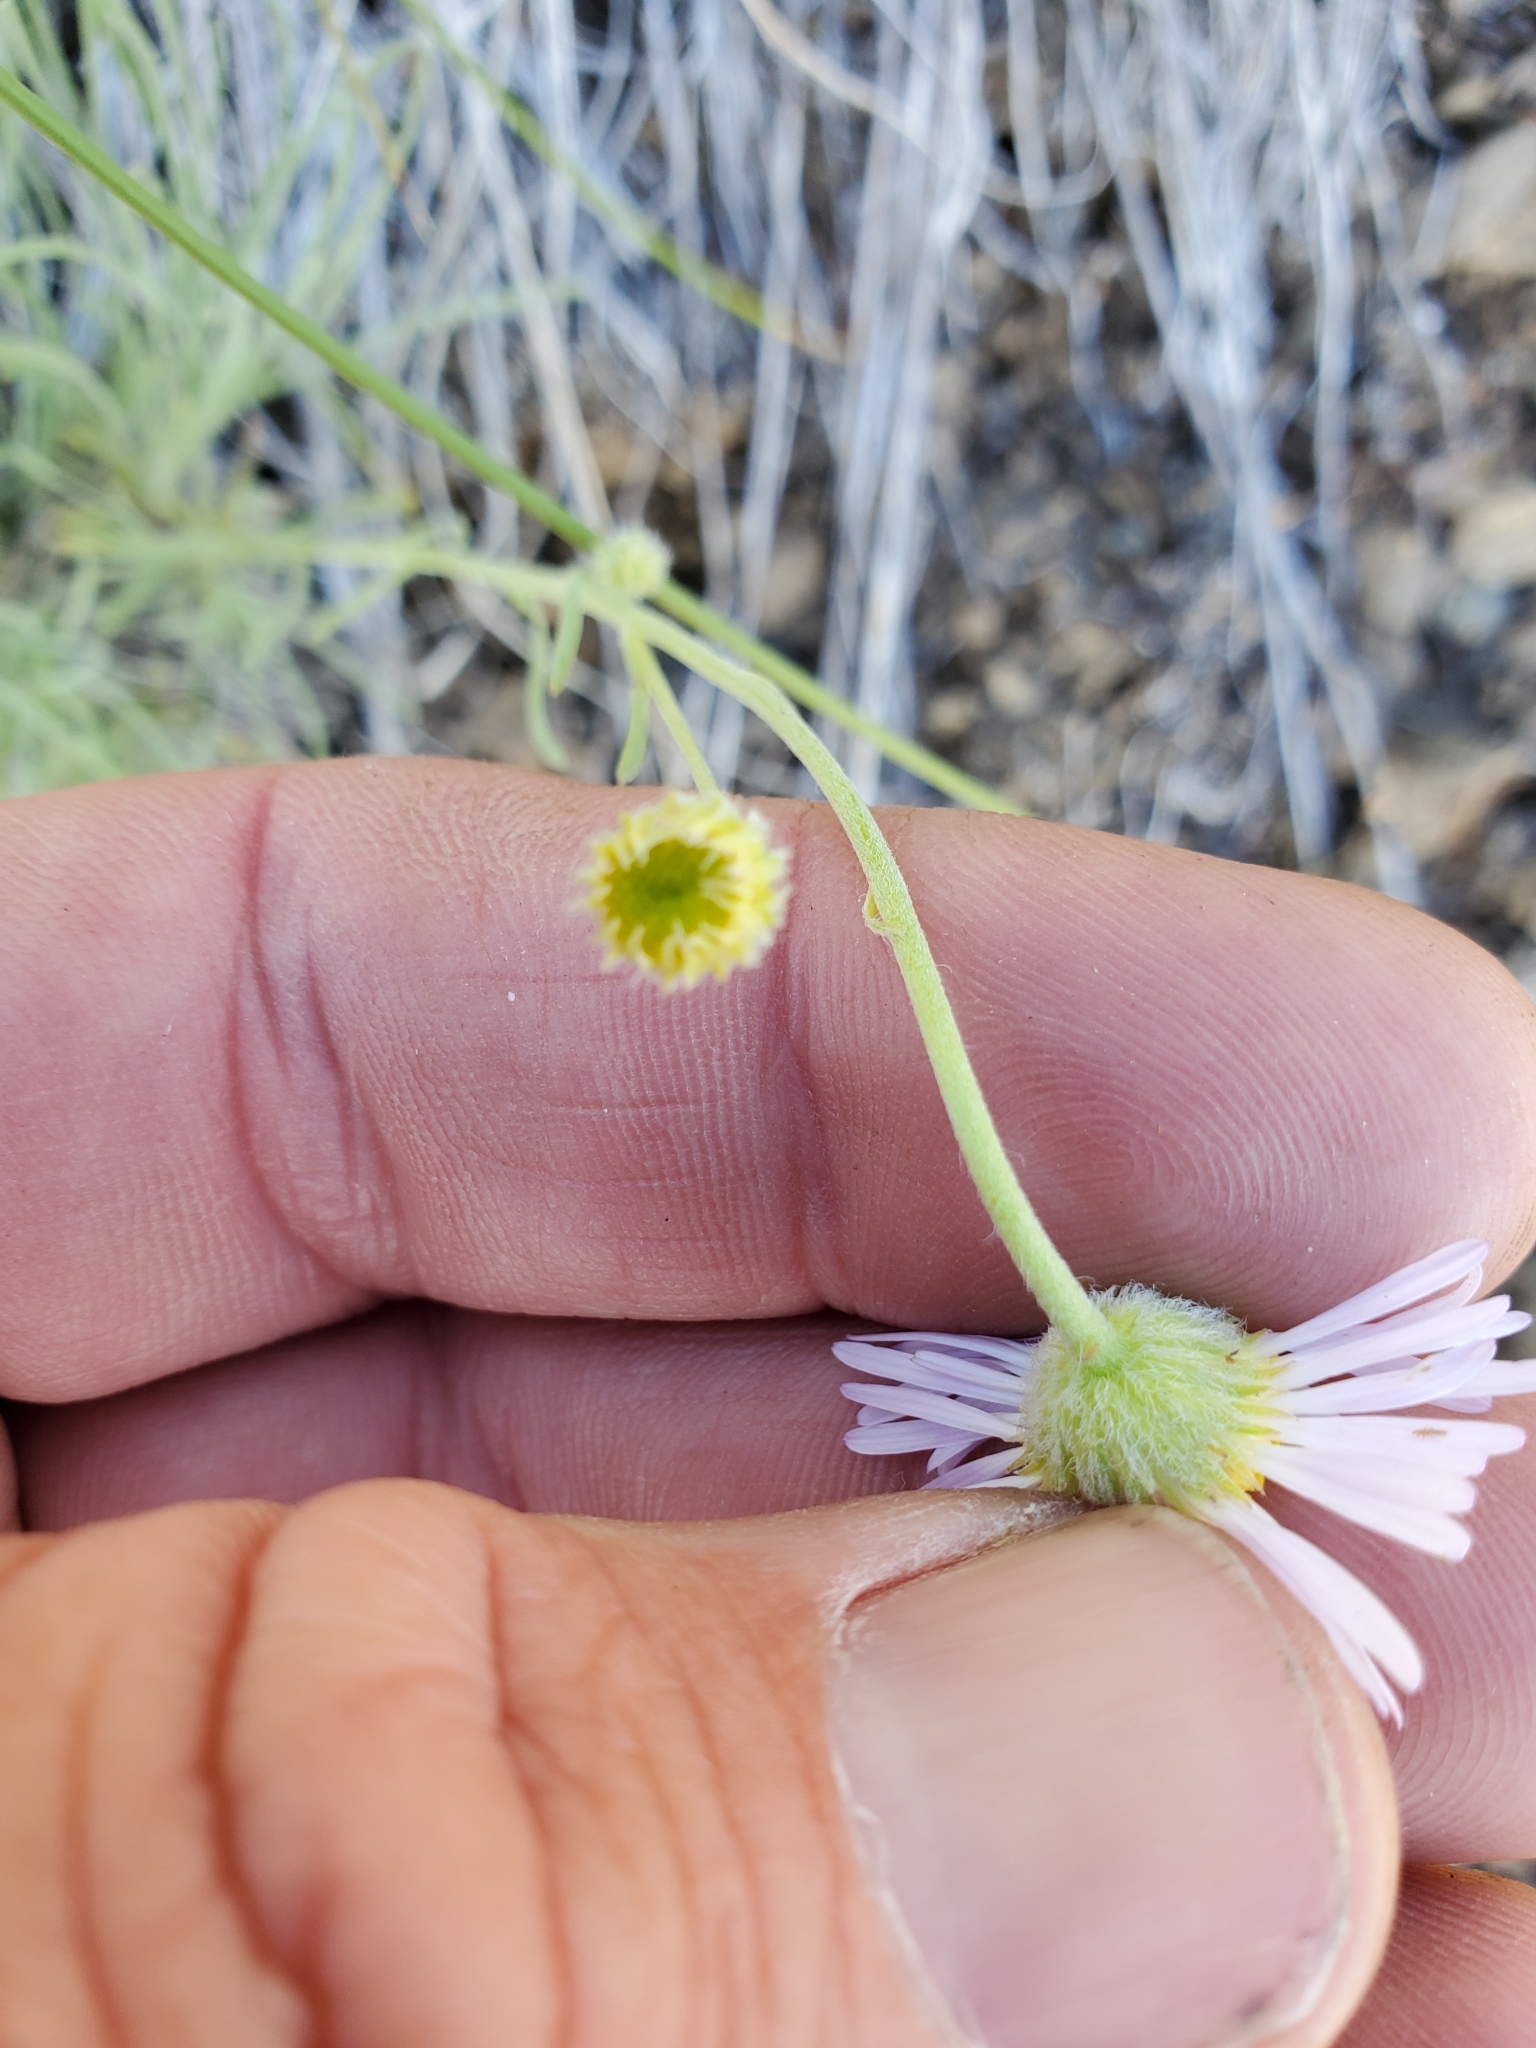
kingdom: Plantae
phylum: Tracheophyta
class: Magnoliopsida
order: Asterales
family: Asteraceae
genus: Erigeron
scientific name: Erigeron filifolius
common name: Threadleaf fleabane
